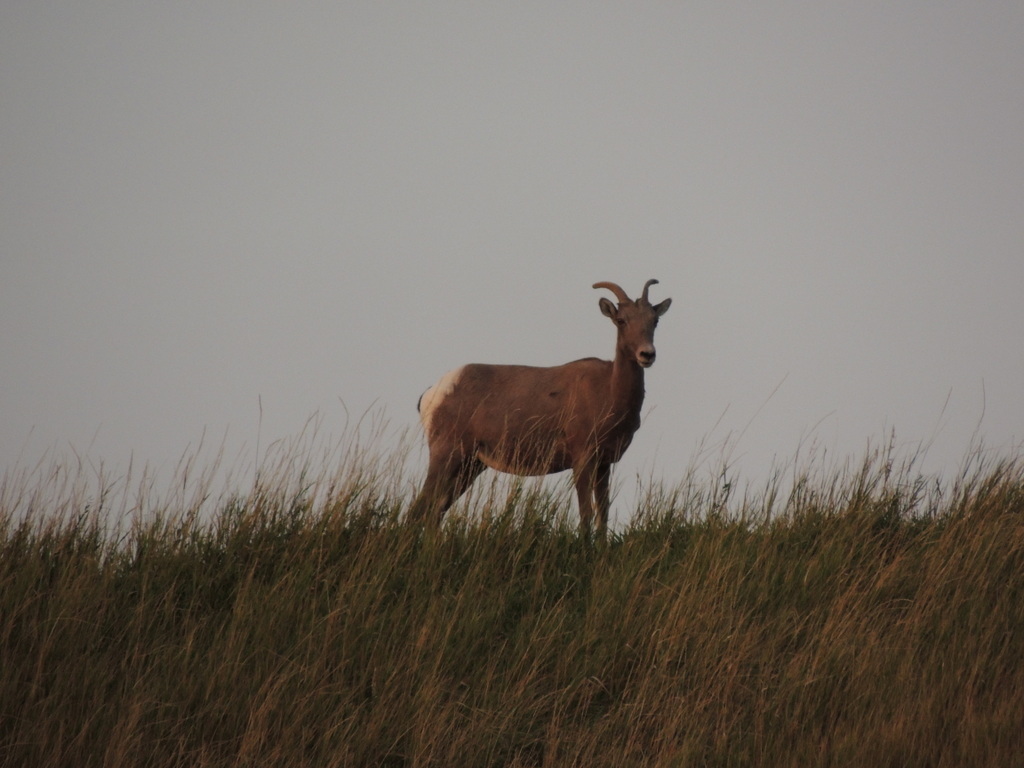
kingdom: Animalia
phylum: Chordata
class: Mammalia
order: Artiodactyla
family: Bovidae
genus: Ovis
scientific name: Ovis canadensis
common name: Bighorn sheep
